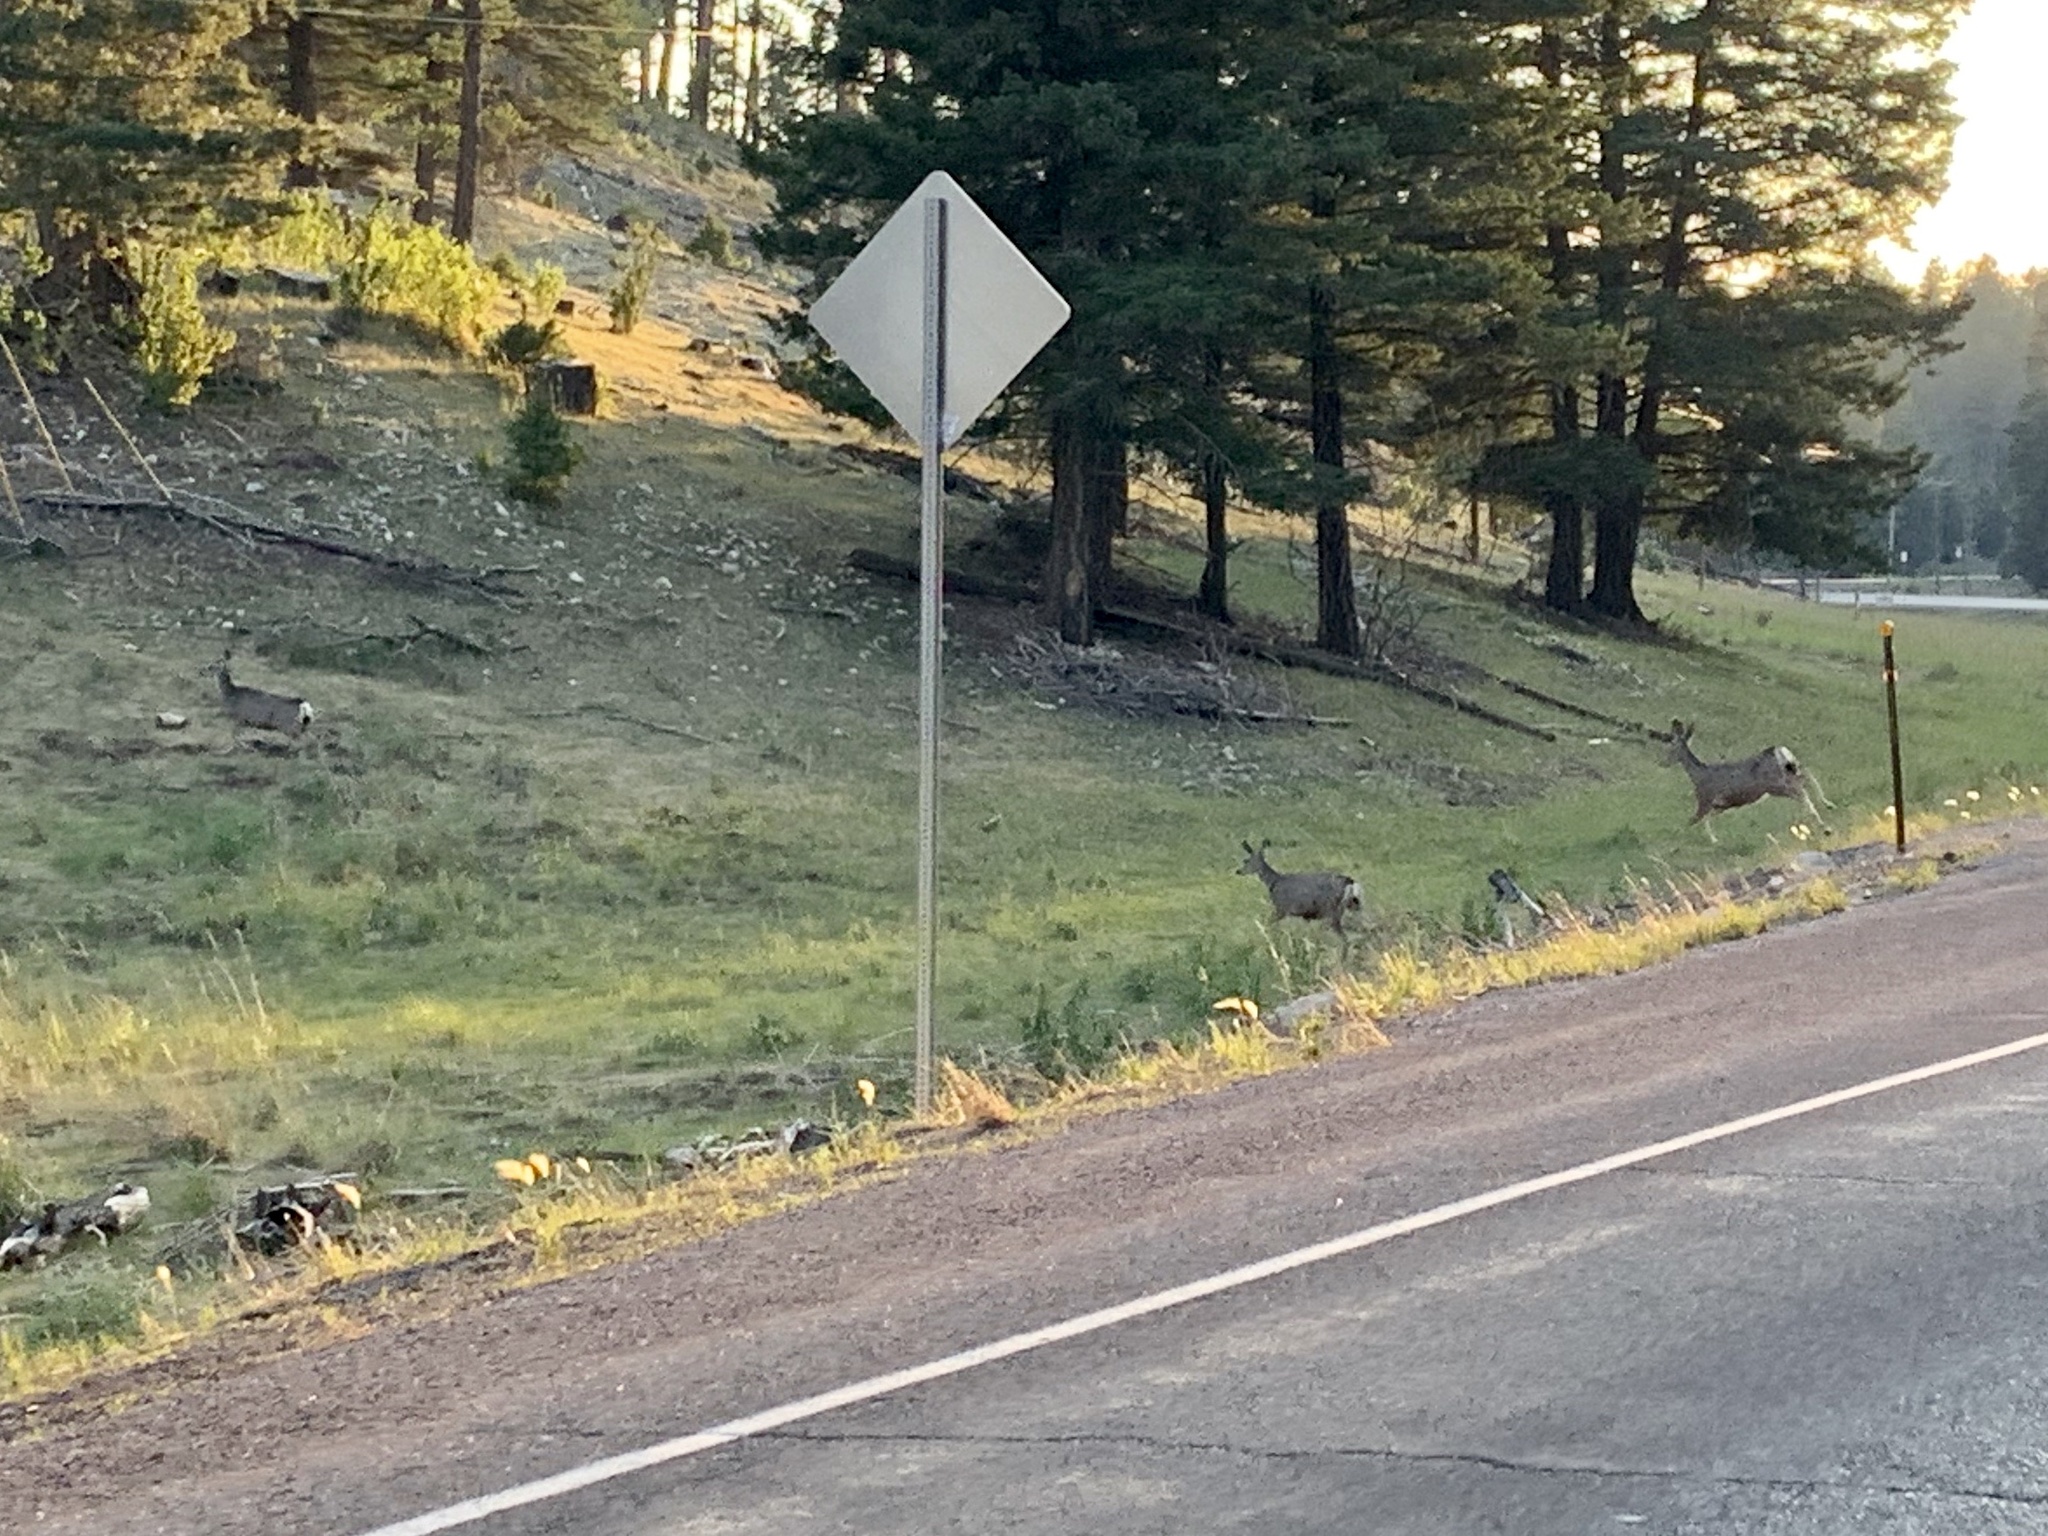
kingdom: Animalia
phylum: Chordata
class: Mammalia
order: Artiodactyla
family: Cervidae
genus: Odocoileus
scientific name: Odocoileus hemionus
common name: Mule deer
